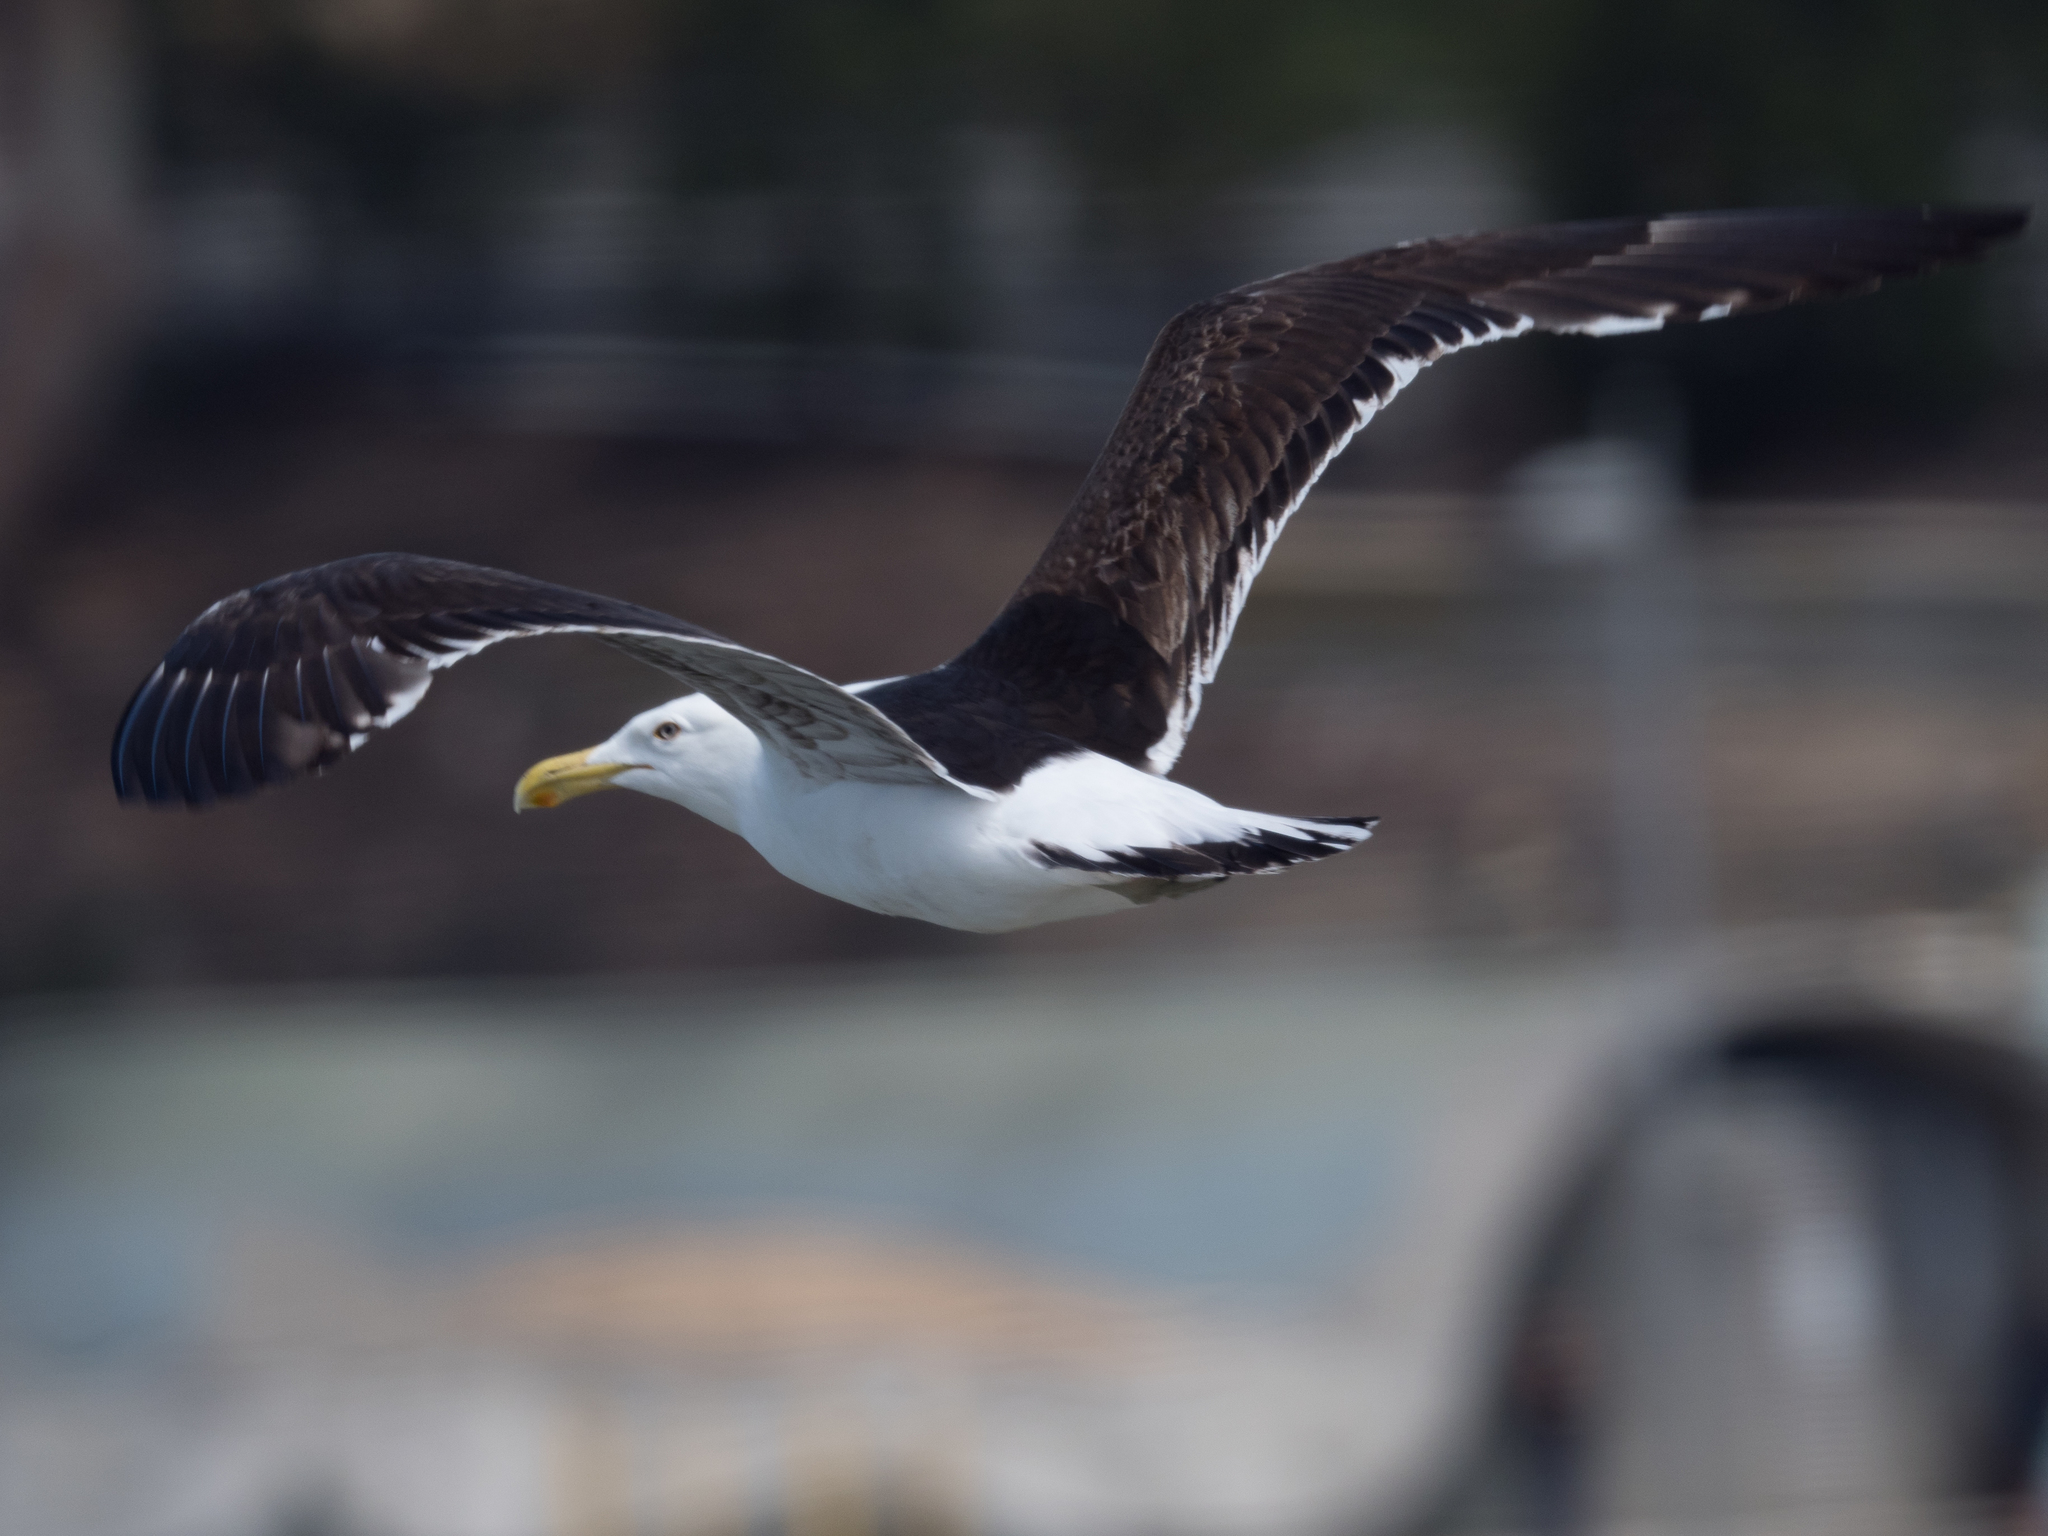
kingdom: Animalia
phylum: Chordata
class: Aves
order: Charadriiformes
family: Laridae
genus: Larus
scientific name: Larus dominicanus
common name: Kelp gull
